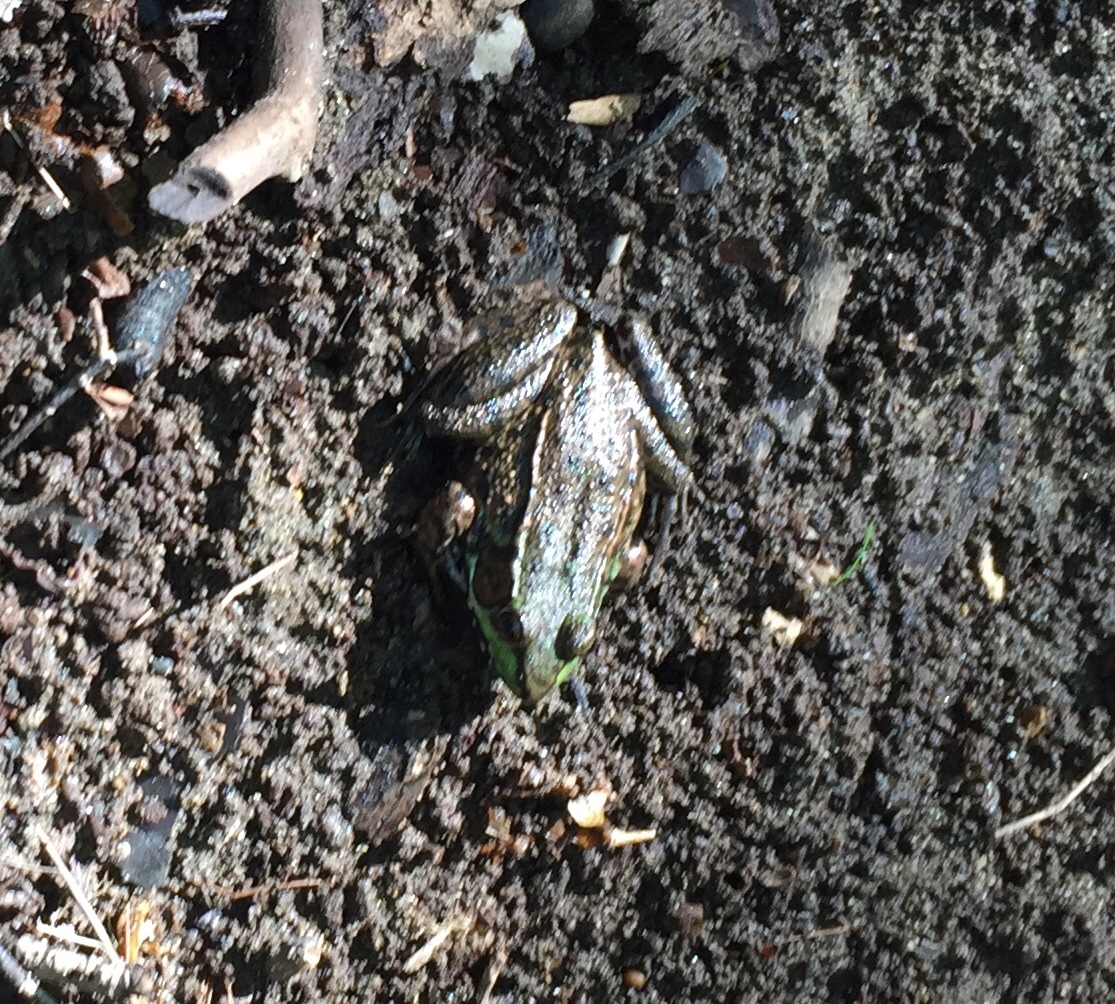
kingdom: Animalia
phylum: Chordata
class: Amphibia
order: Anura
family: Ranidae
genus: Lithobates
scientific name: Lithobates clamitans
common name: Green frog
